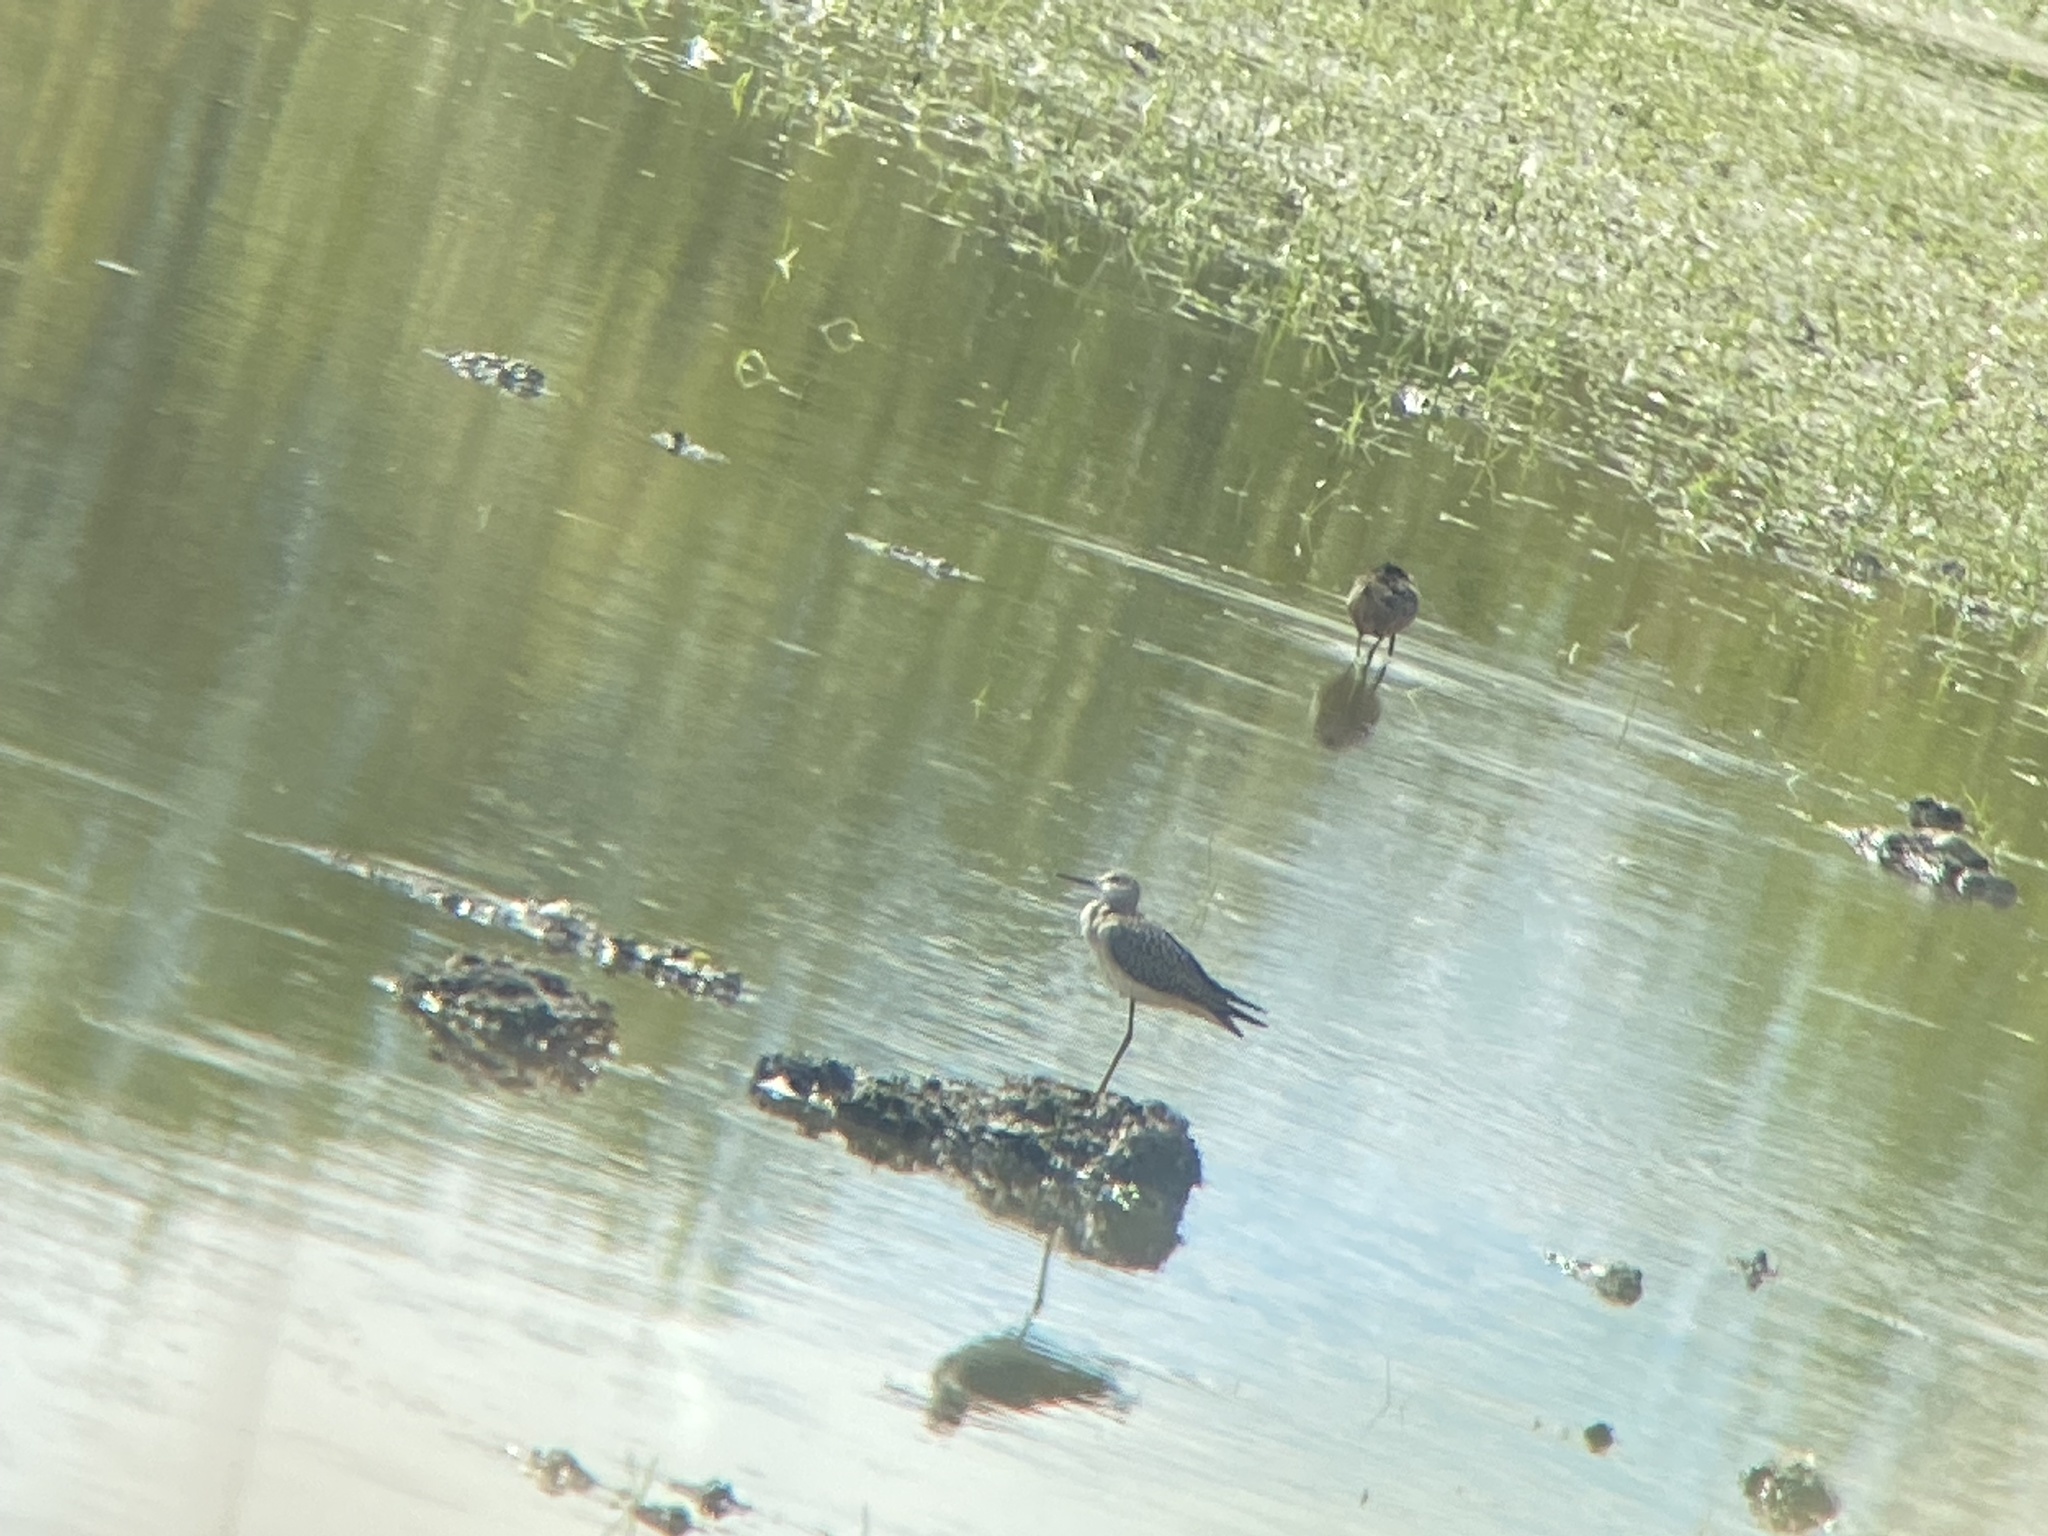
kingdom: Animalia
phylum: Chordata
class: Aves
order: Charadriiformes
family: Scolopacidae
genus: Tringa
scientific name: Tringa melanoleuca
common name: Greater yellowlegs
